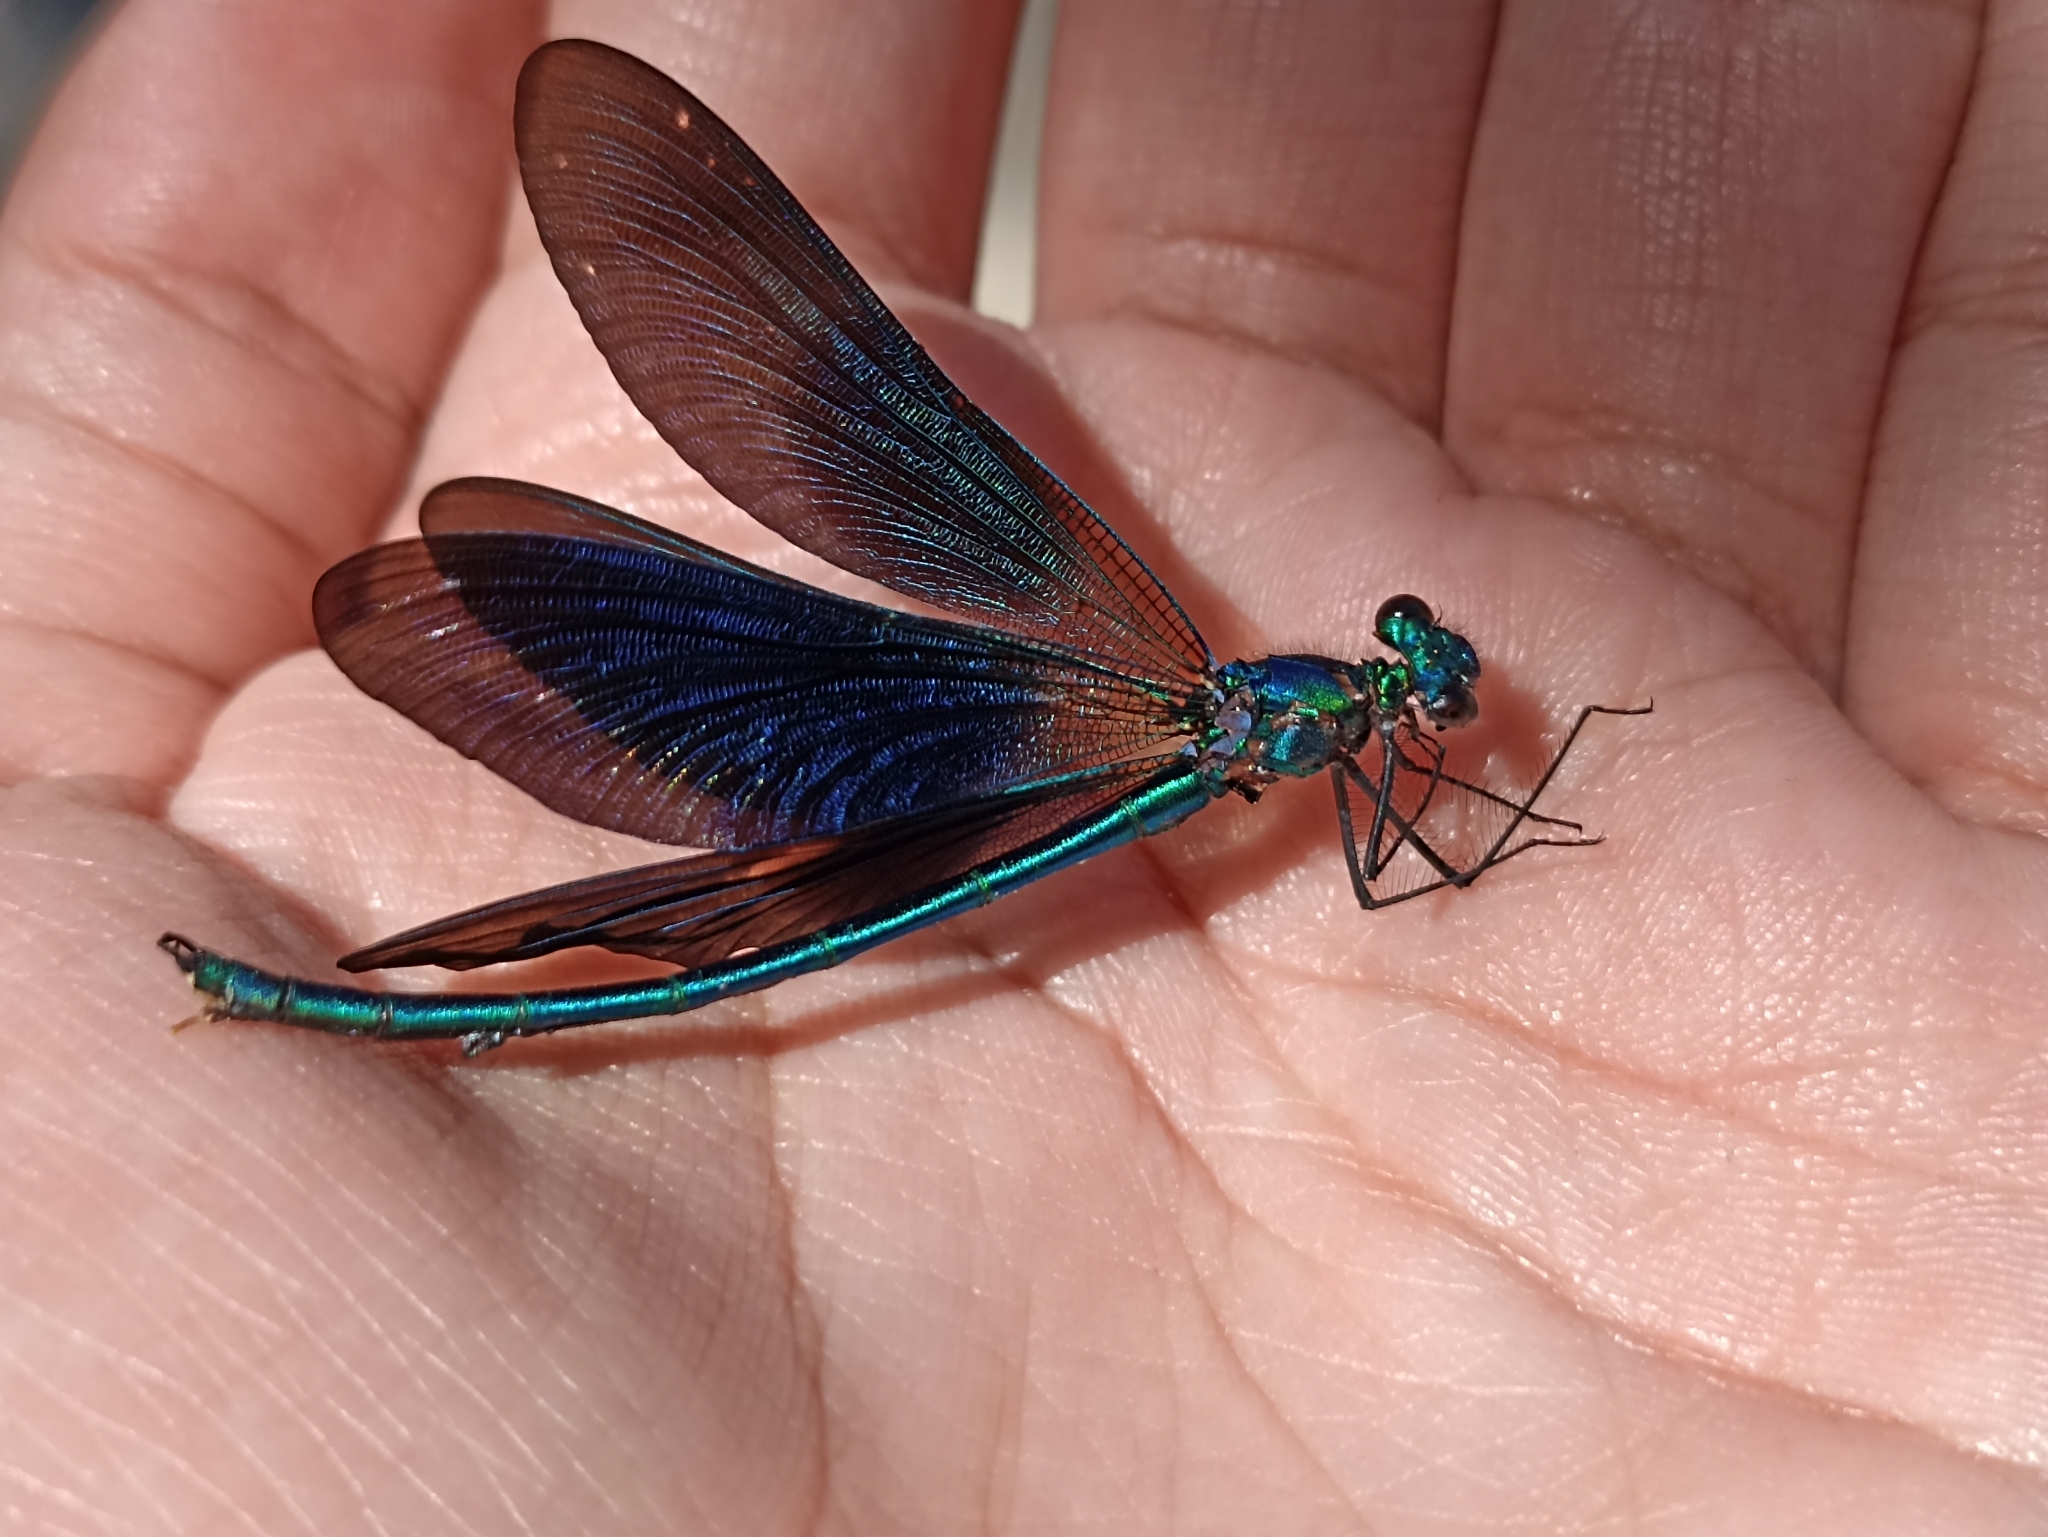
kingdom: Animalia
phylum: Arthropoda
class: Insecta
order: Odonata
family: Calopterygidae
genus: Calopteryx
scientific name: Calopteryx virgo
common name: Beautiful demoiselle
